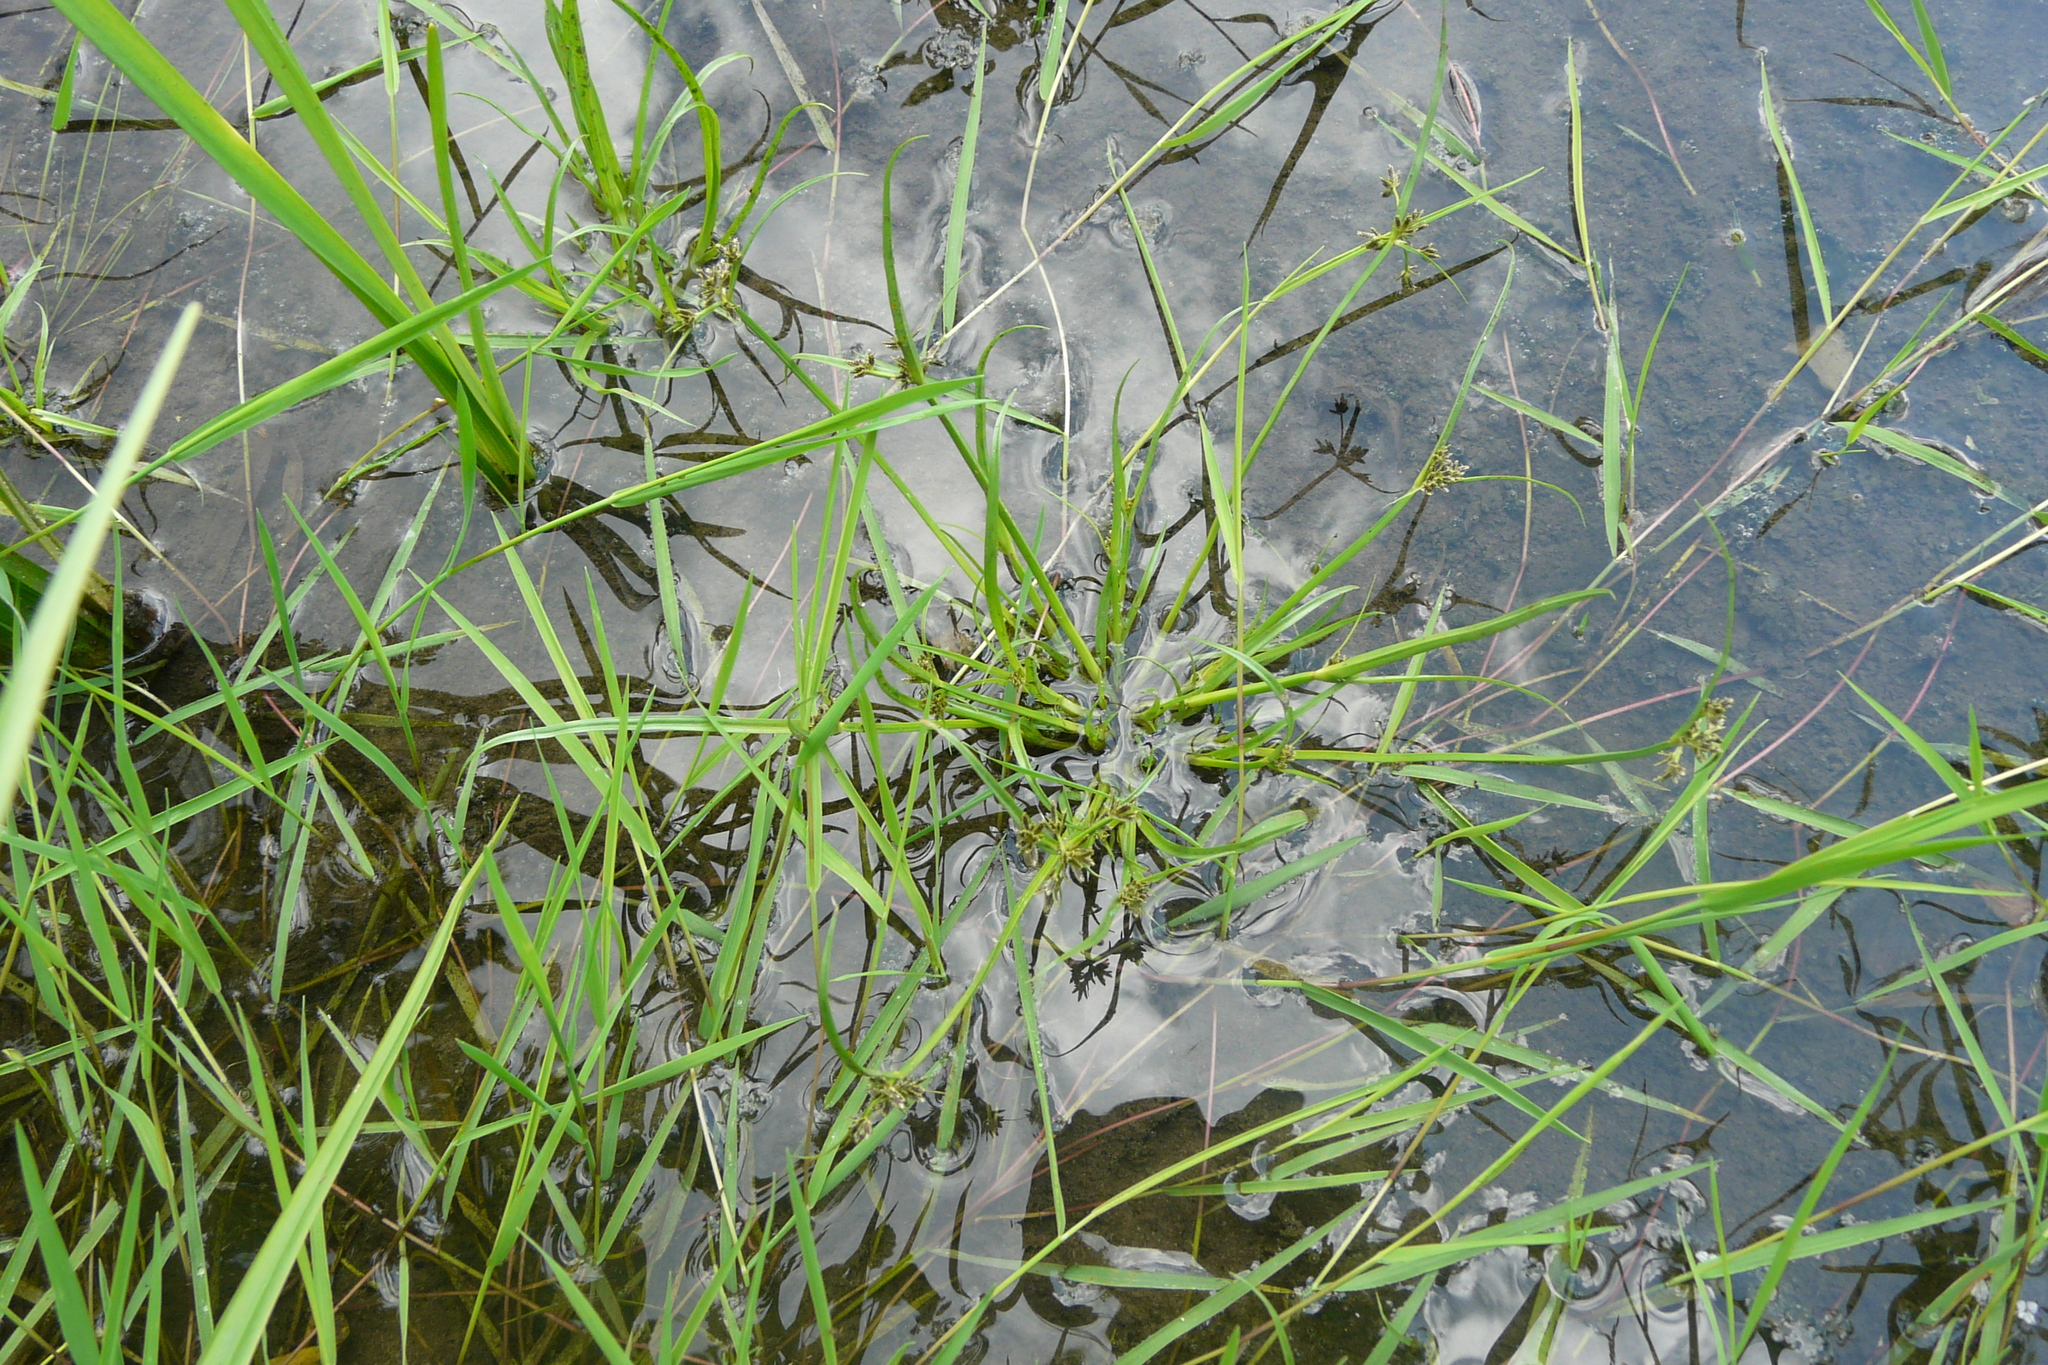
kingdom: Plantae
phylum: Tracheophyta
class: Liliopsida
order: Poales
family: Cyperaceae
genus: Cyperus
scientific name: Cyperus fuscus
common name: Brown galingale
